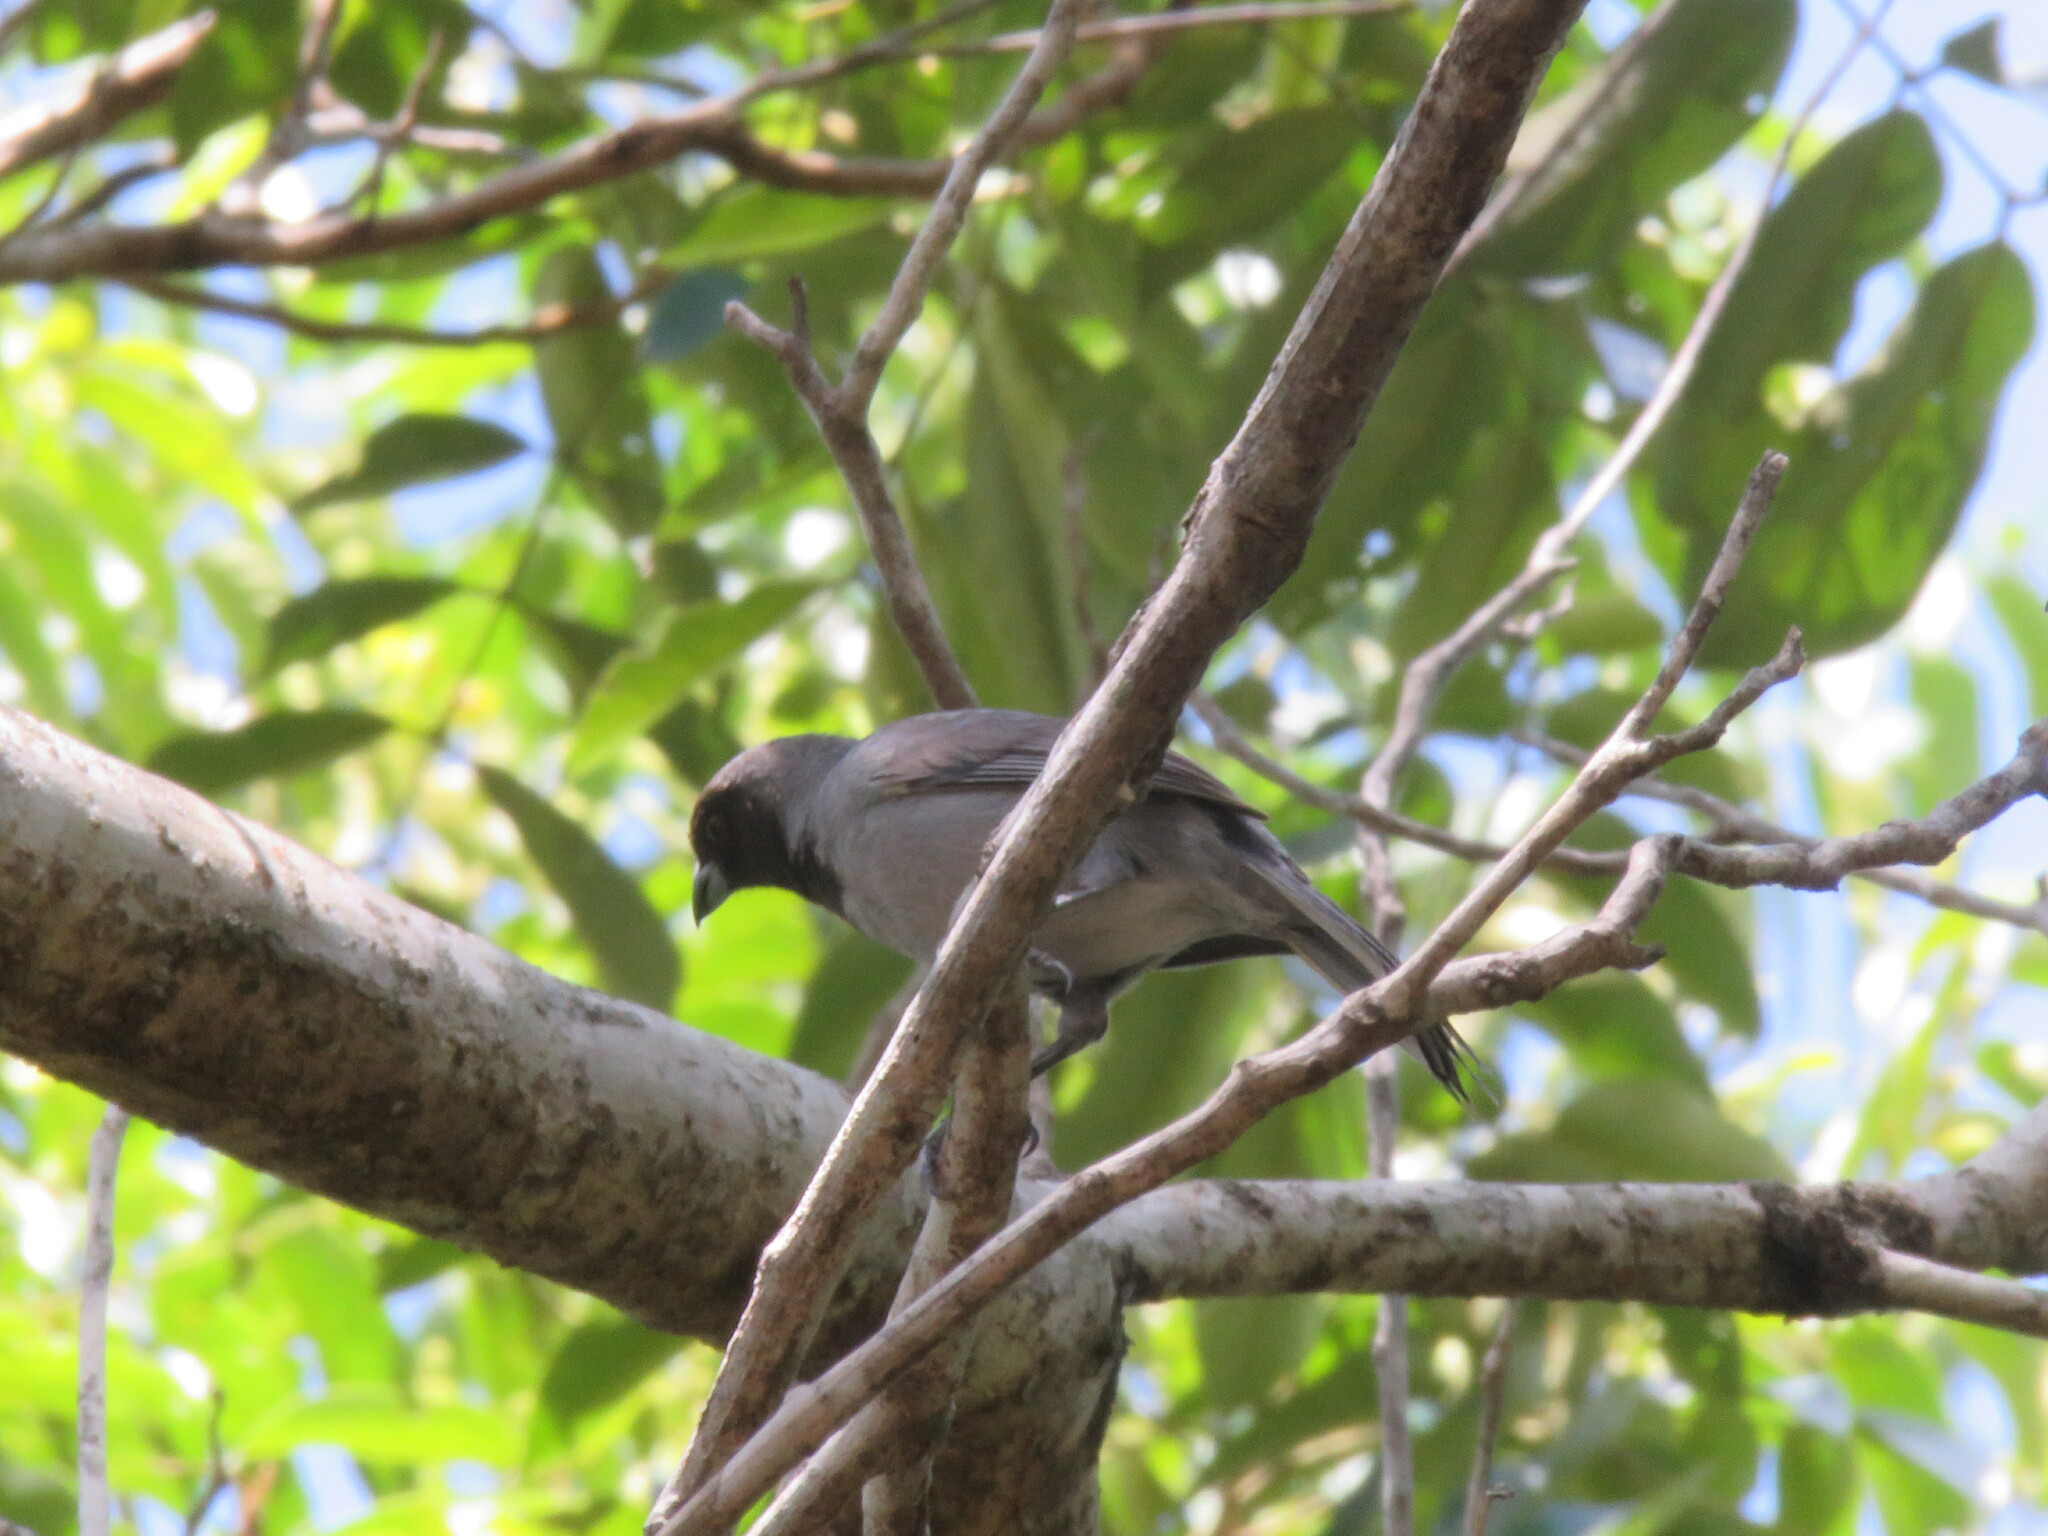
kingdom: Animalia
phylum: Chordata
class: Aves
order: Passeriformes
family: Thraupidae
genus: Schistochlamys
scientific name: Schistochlamys melanopis
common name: Black-faced tanager
